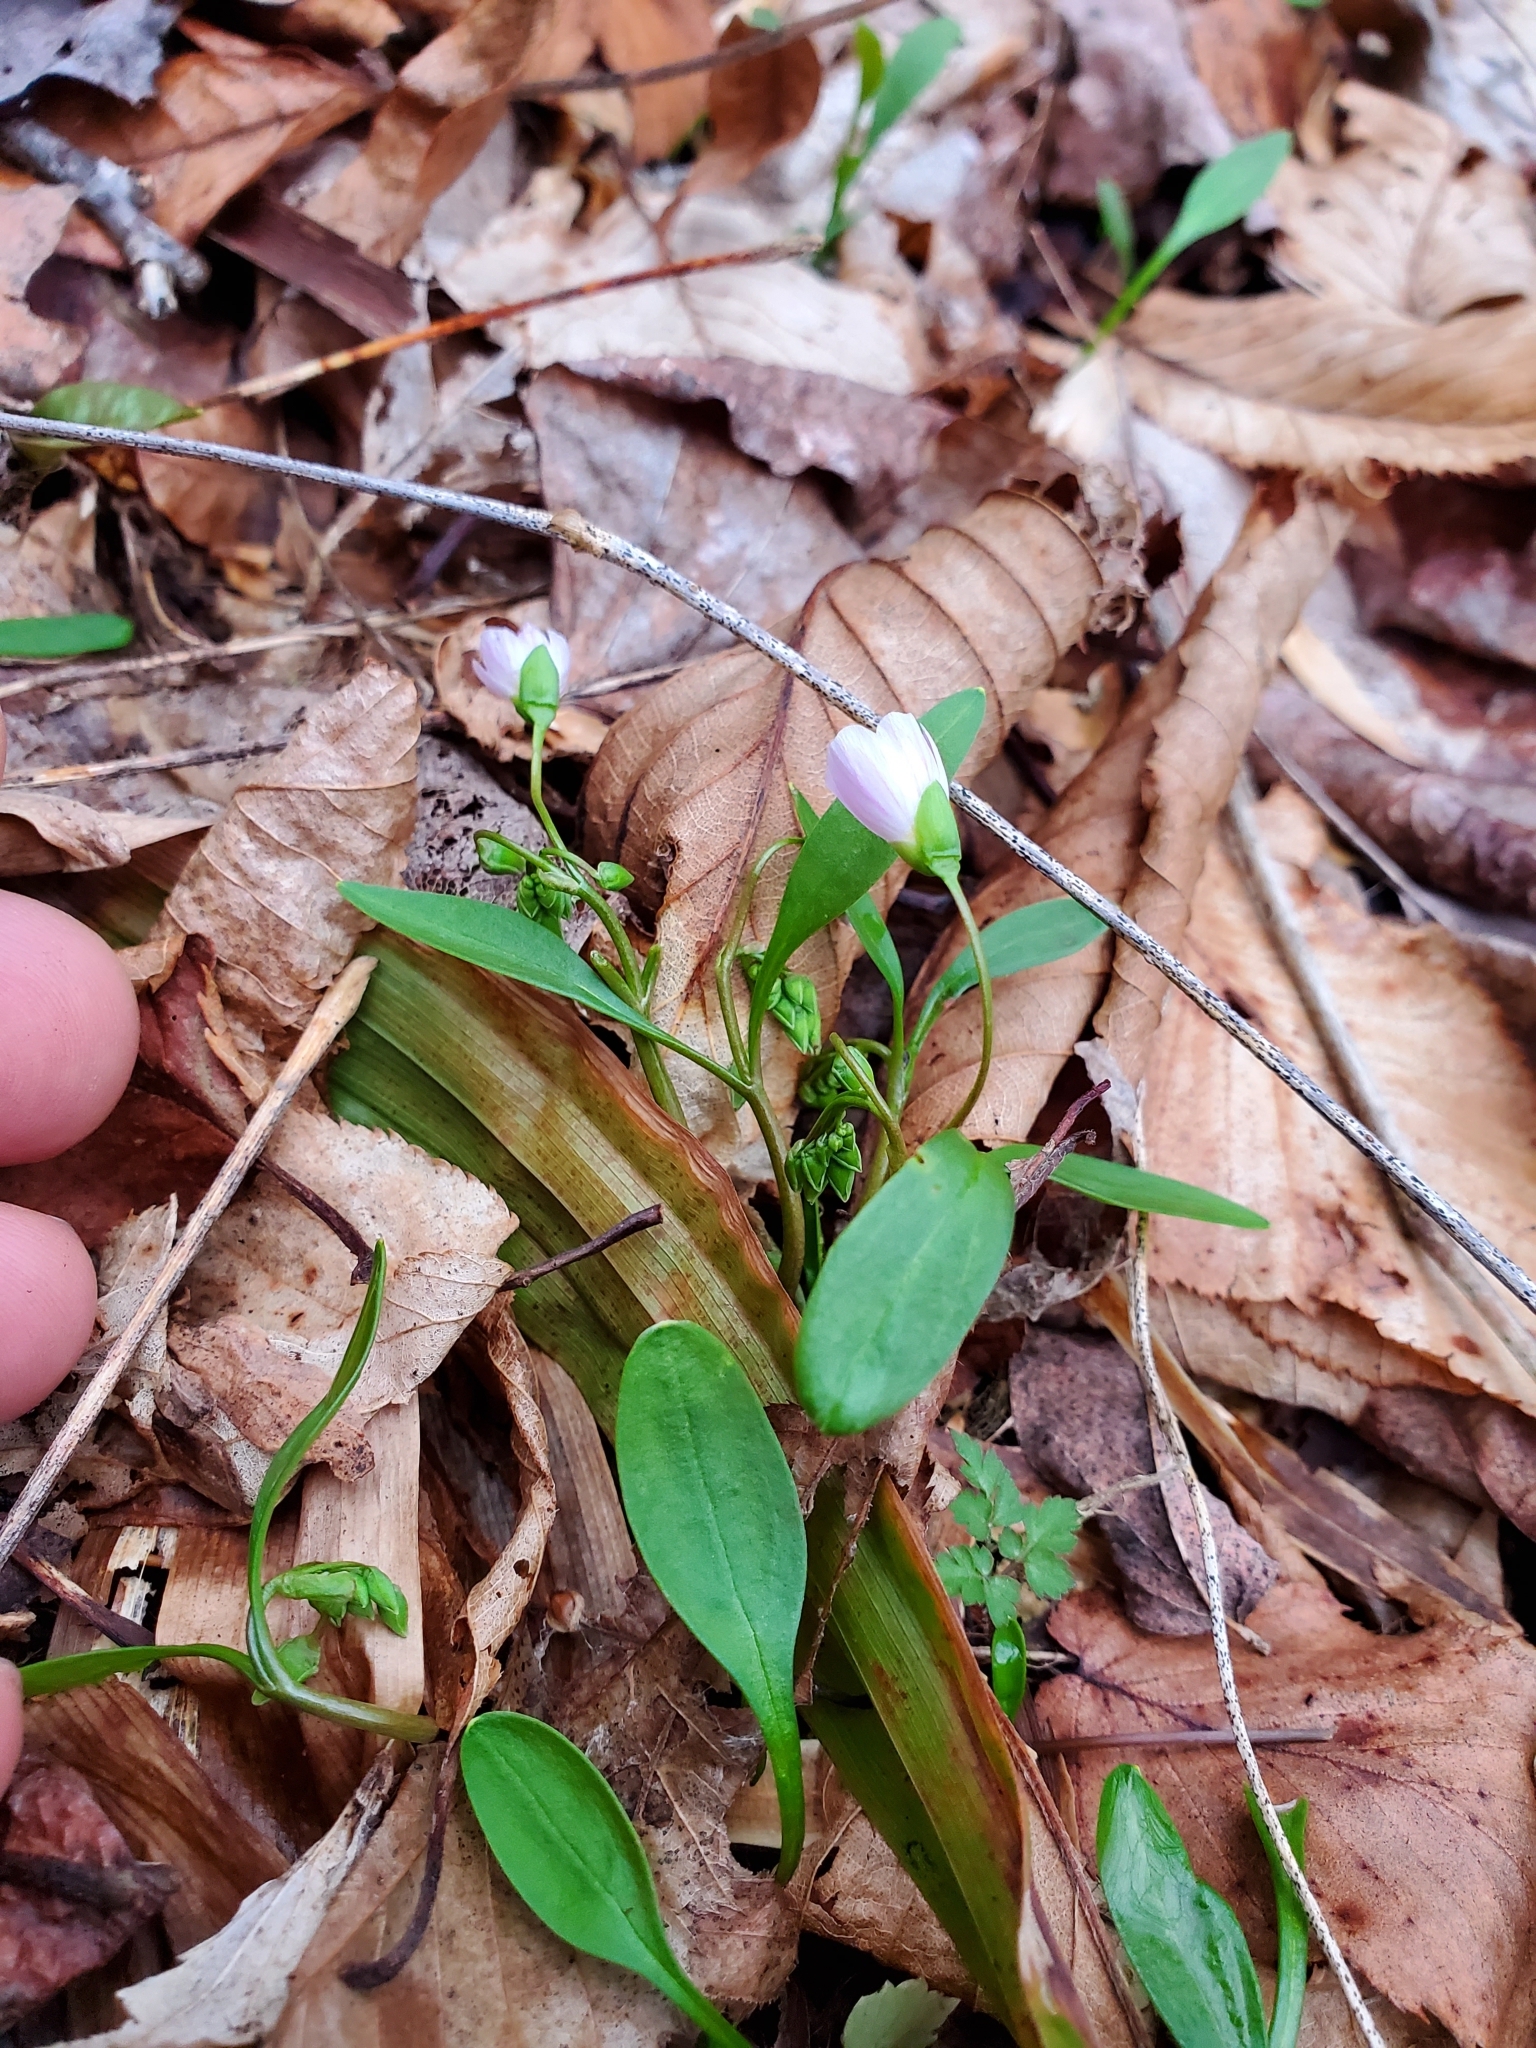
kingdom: Plantae
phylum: Tracheophyta
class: Magnoliopsida
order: Caryophyllales
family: Montiaceae
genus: Claytonia
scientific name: Claytonia caroliniana
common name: Carolina spring beauty
